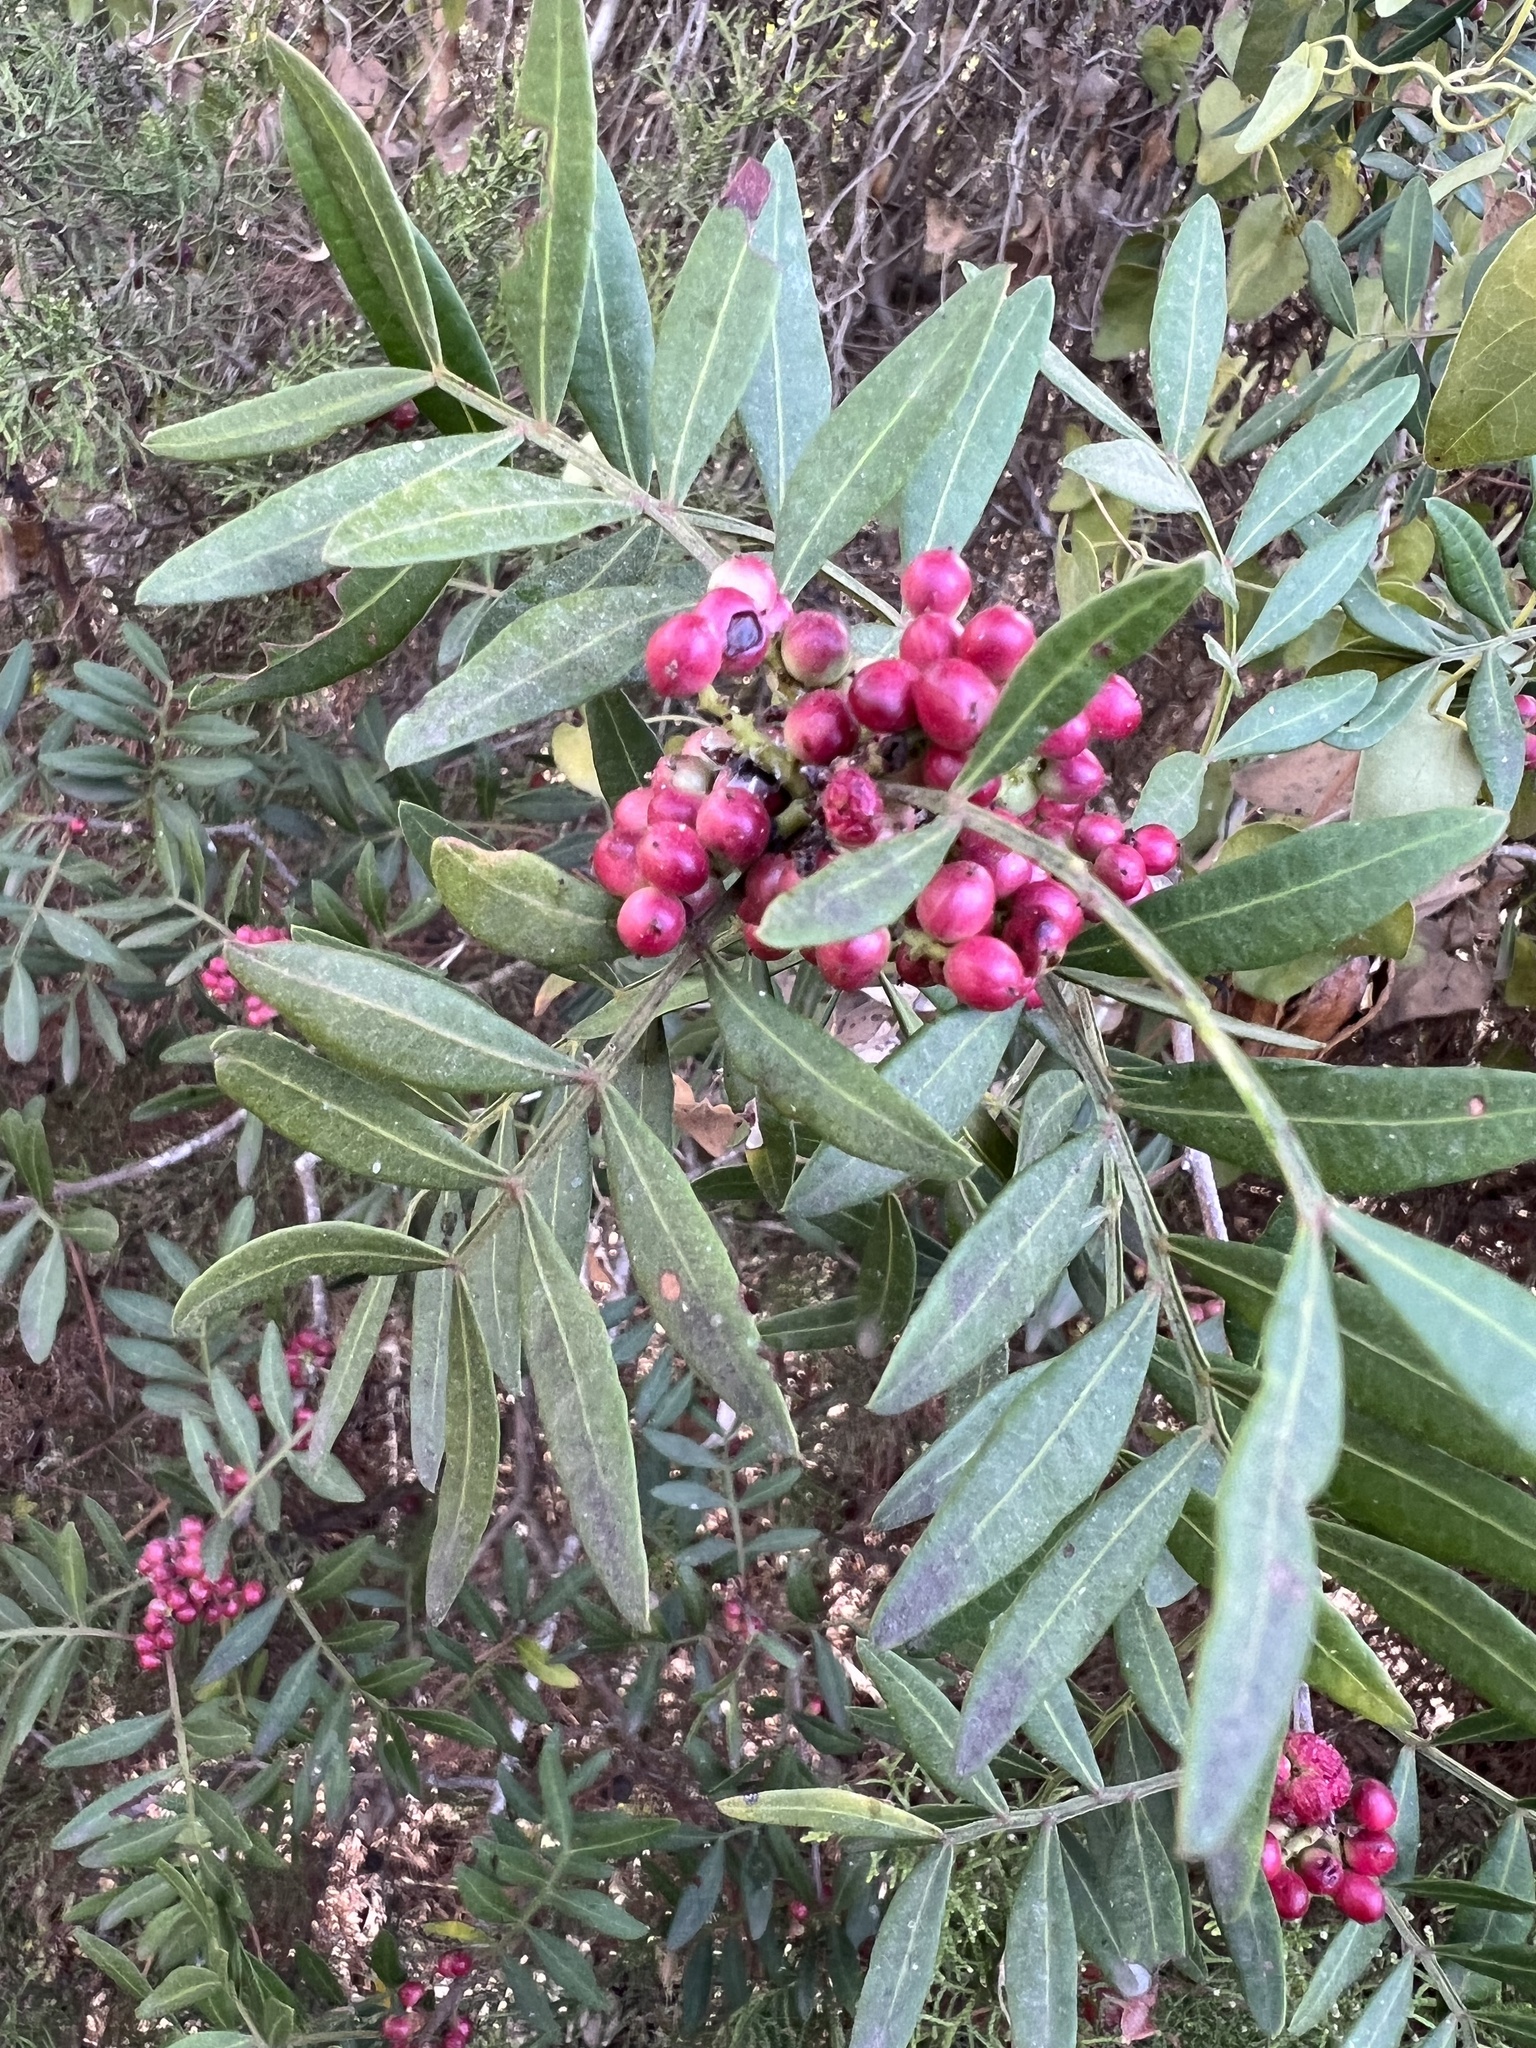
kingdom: Plantae
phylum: Tracheophyta
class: Magnoliopsida
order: Sapindales
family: Anacardiaceae
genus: Pistacia
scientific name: Pistacia lentiscus
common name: Lentisk
